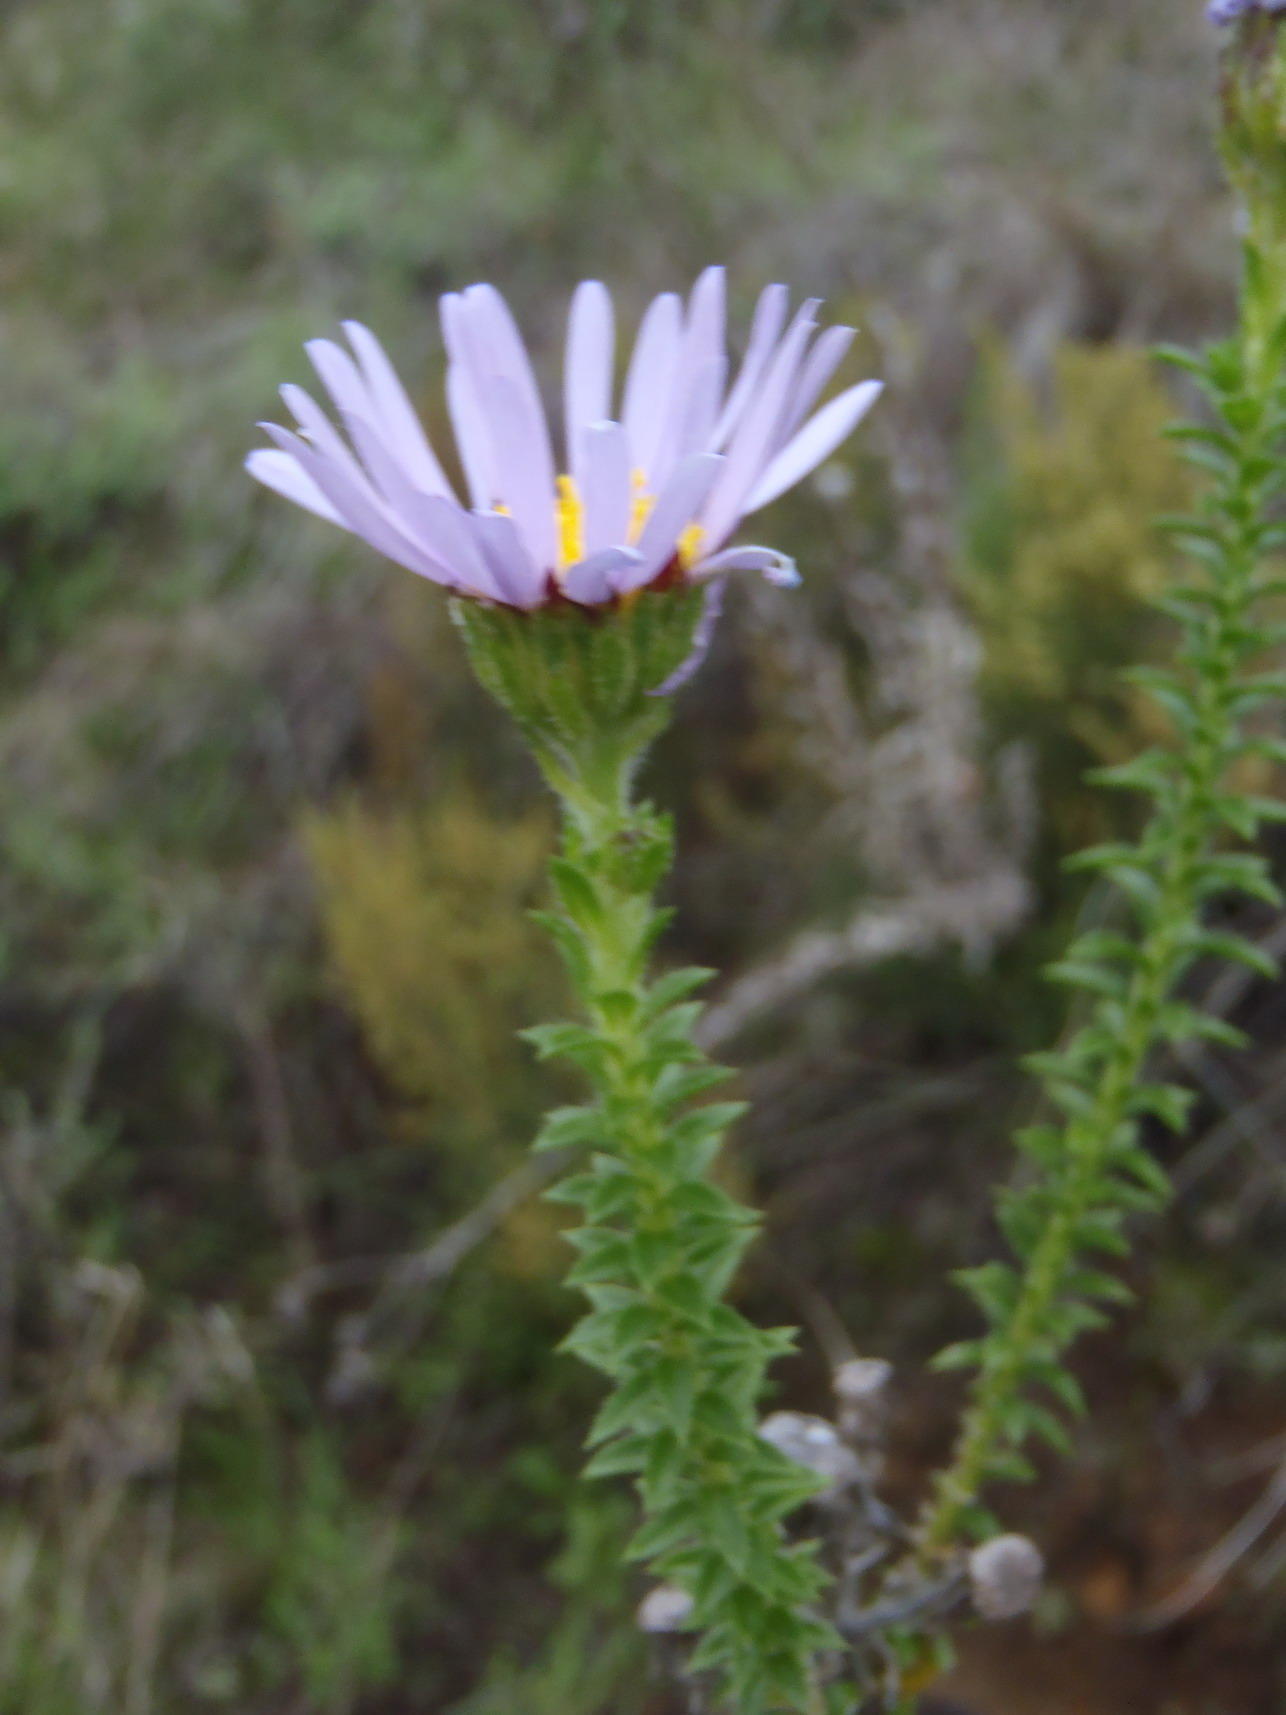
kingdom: Plantae
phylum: Tracheophyta
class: Magnoliopsida
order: Asterales
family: Asteraceae
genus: Felicia
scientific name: Felicia echinata
